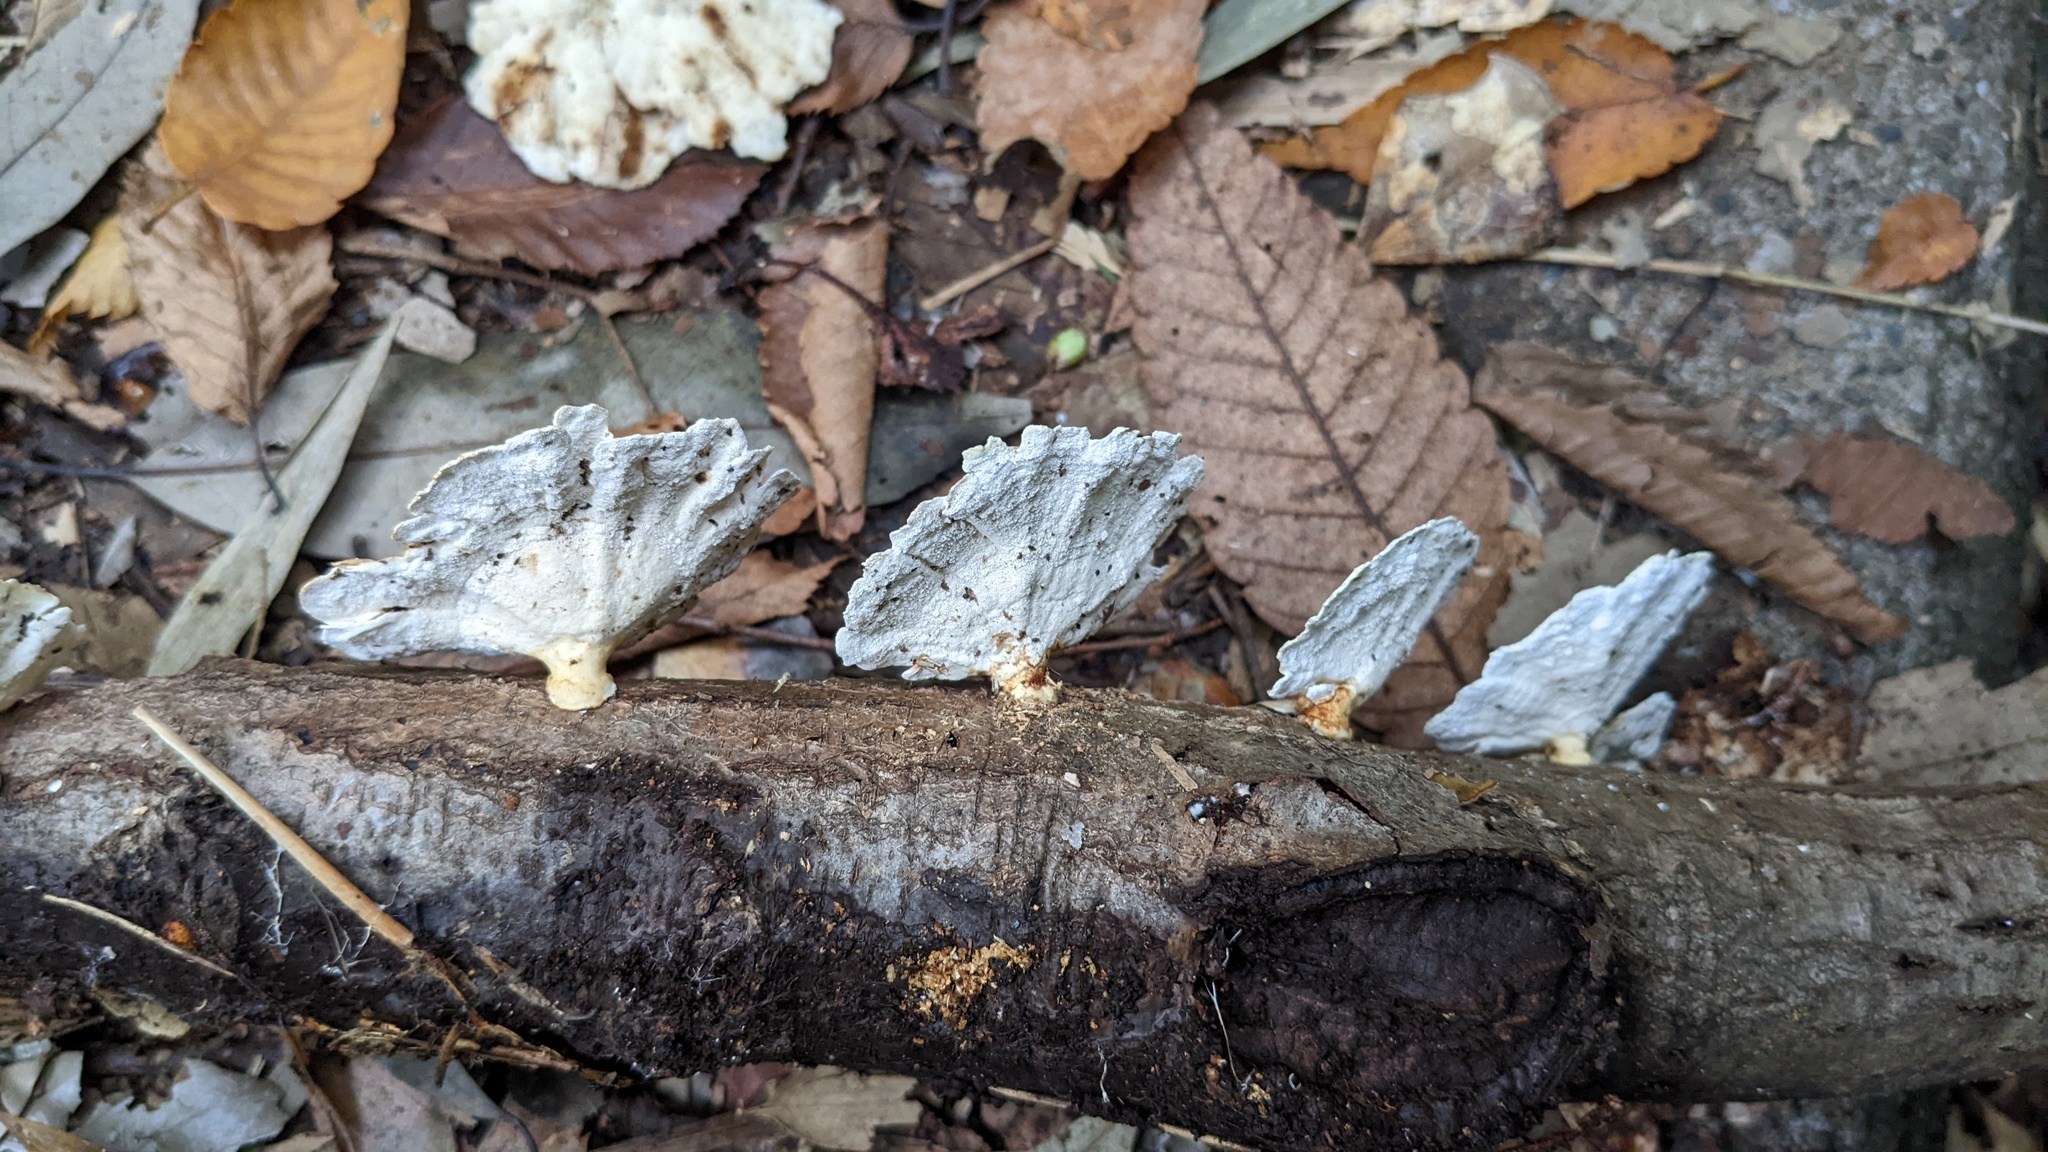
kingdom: Fungi
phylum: Basidiomycota
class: Agaricomycetes
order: Polyporales
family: Polyporaceae
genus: Trametes
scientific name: Trametes vernicipes
